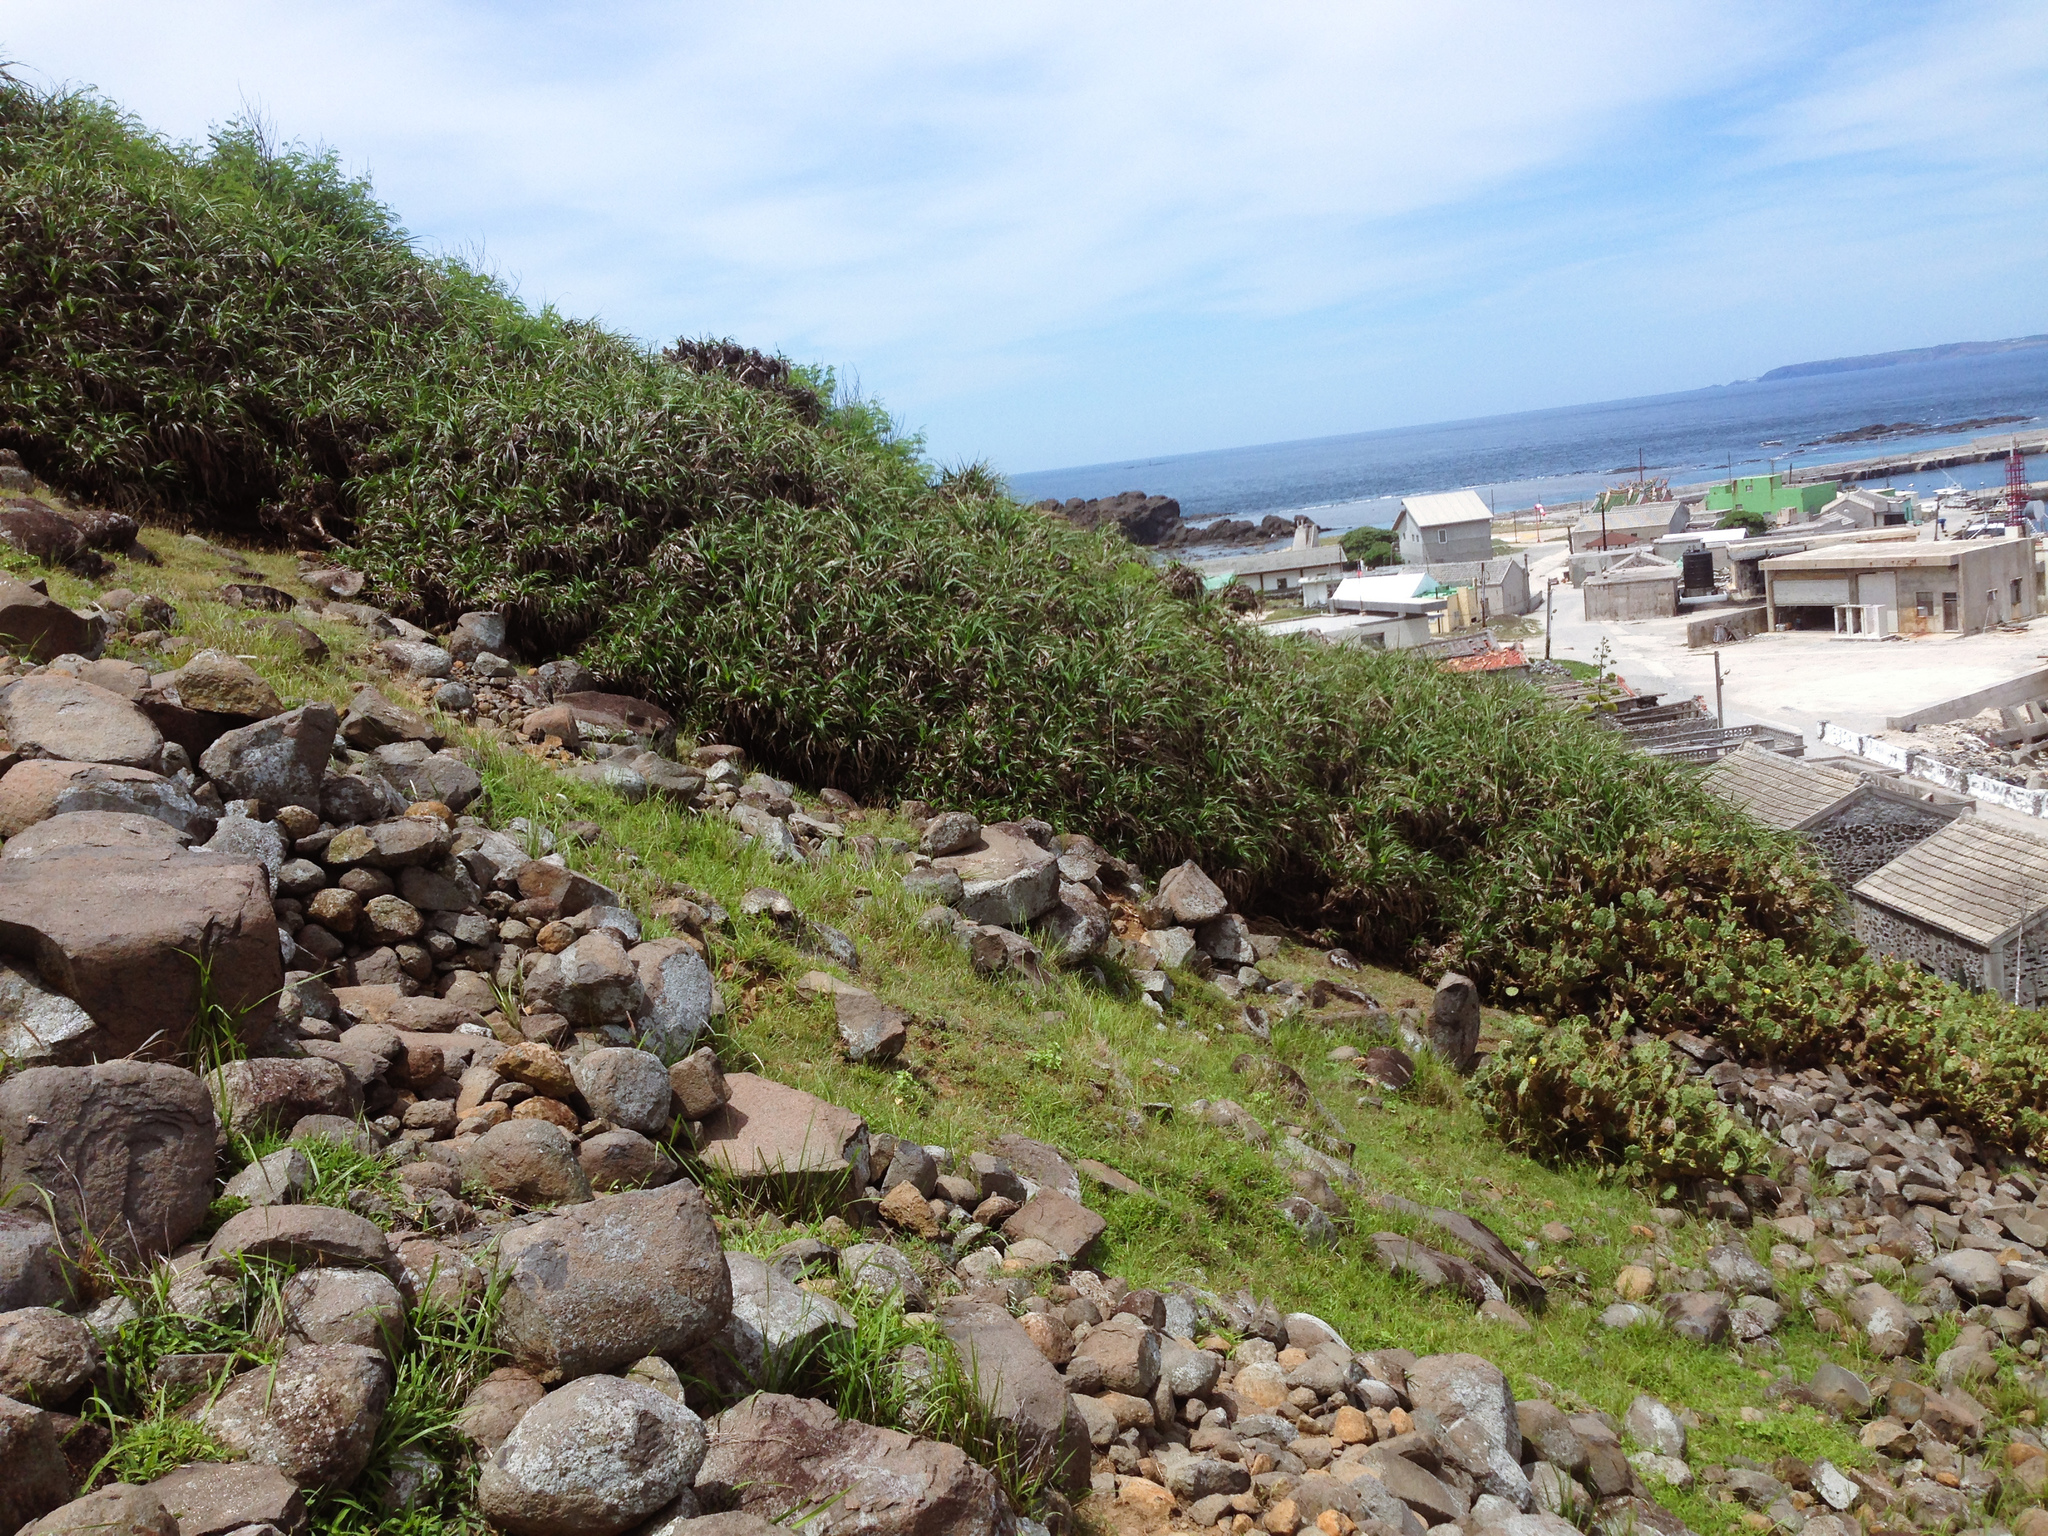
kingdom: Plantae
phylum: Tracheophyta
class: Liliopsida
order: Pandanales
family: Pandanaceae
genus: Pandanus
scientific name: Pandanus odorifer
